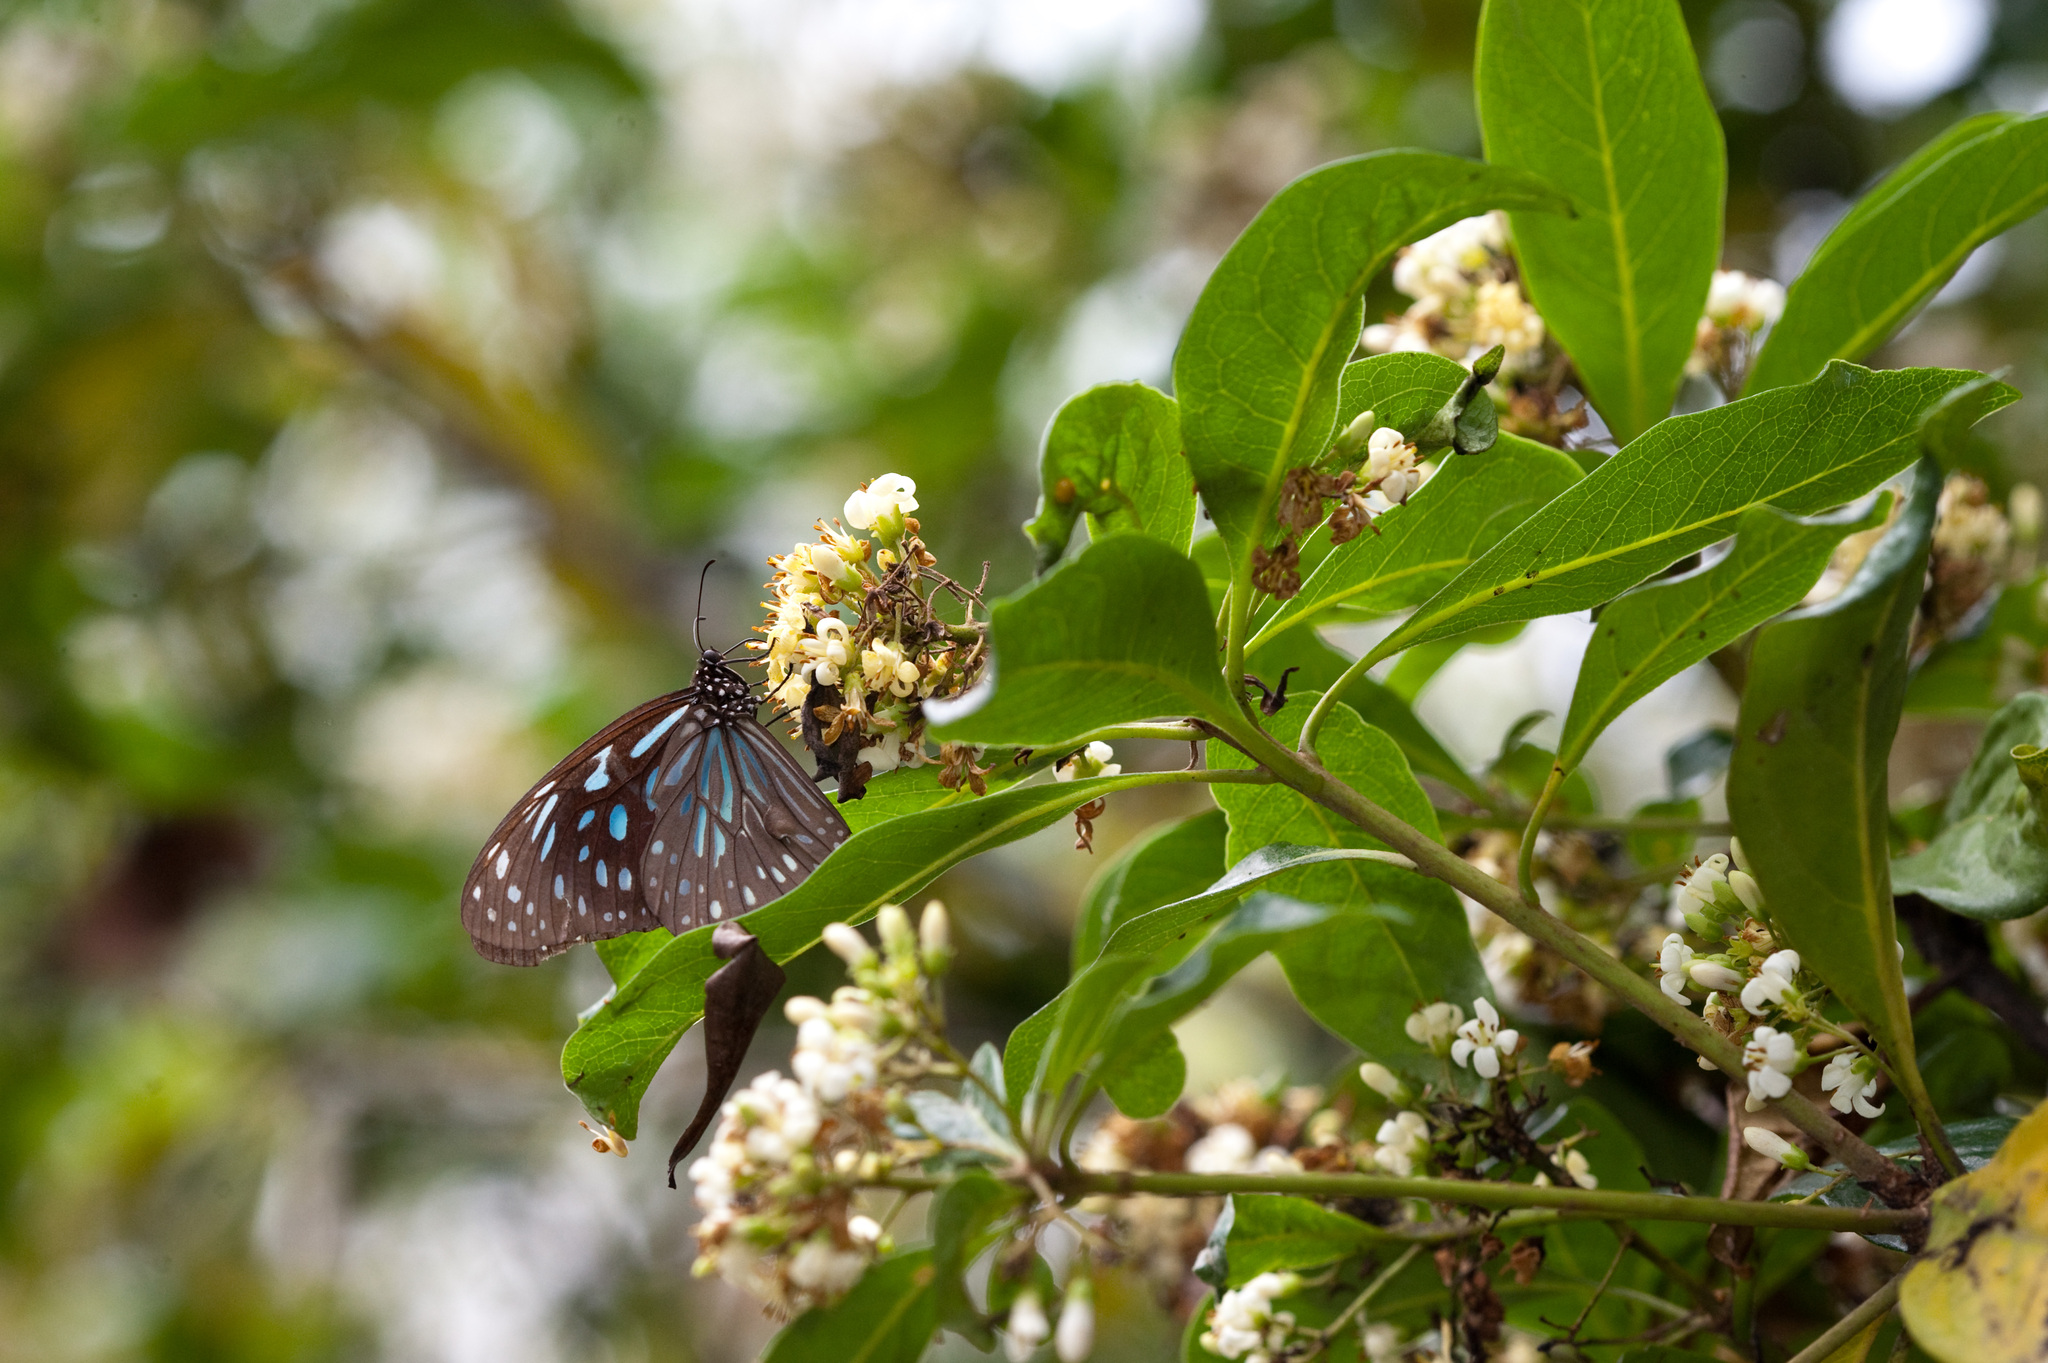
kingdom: Animalia
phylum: Arthropoda
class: Insecta
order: Lepidoptera
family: Nymphalidae
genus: Tirumala
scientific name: Tirumala septentrionis
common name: Dark blue tiger butterfly
